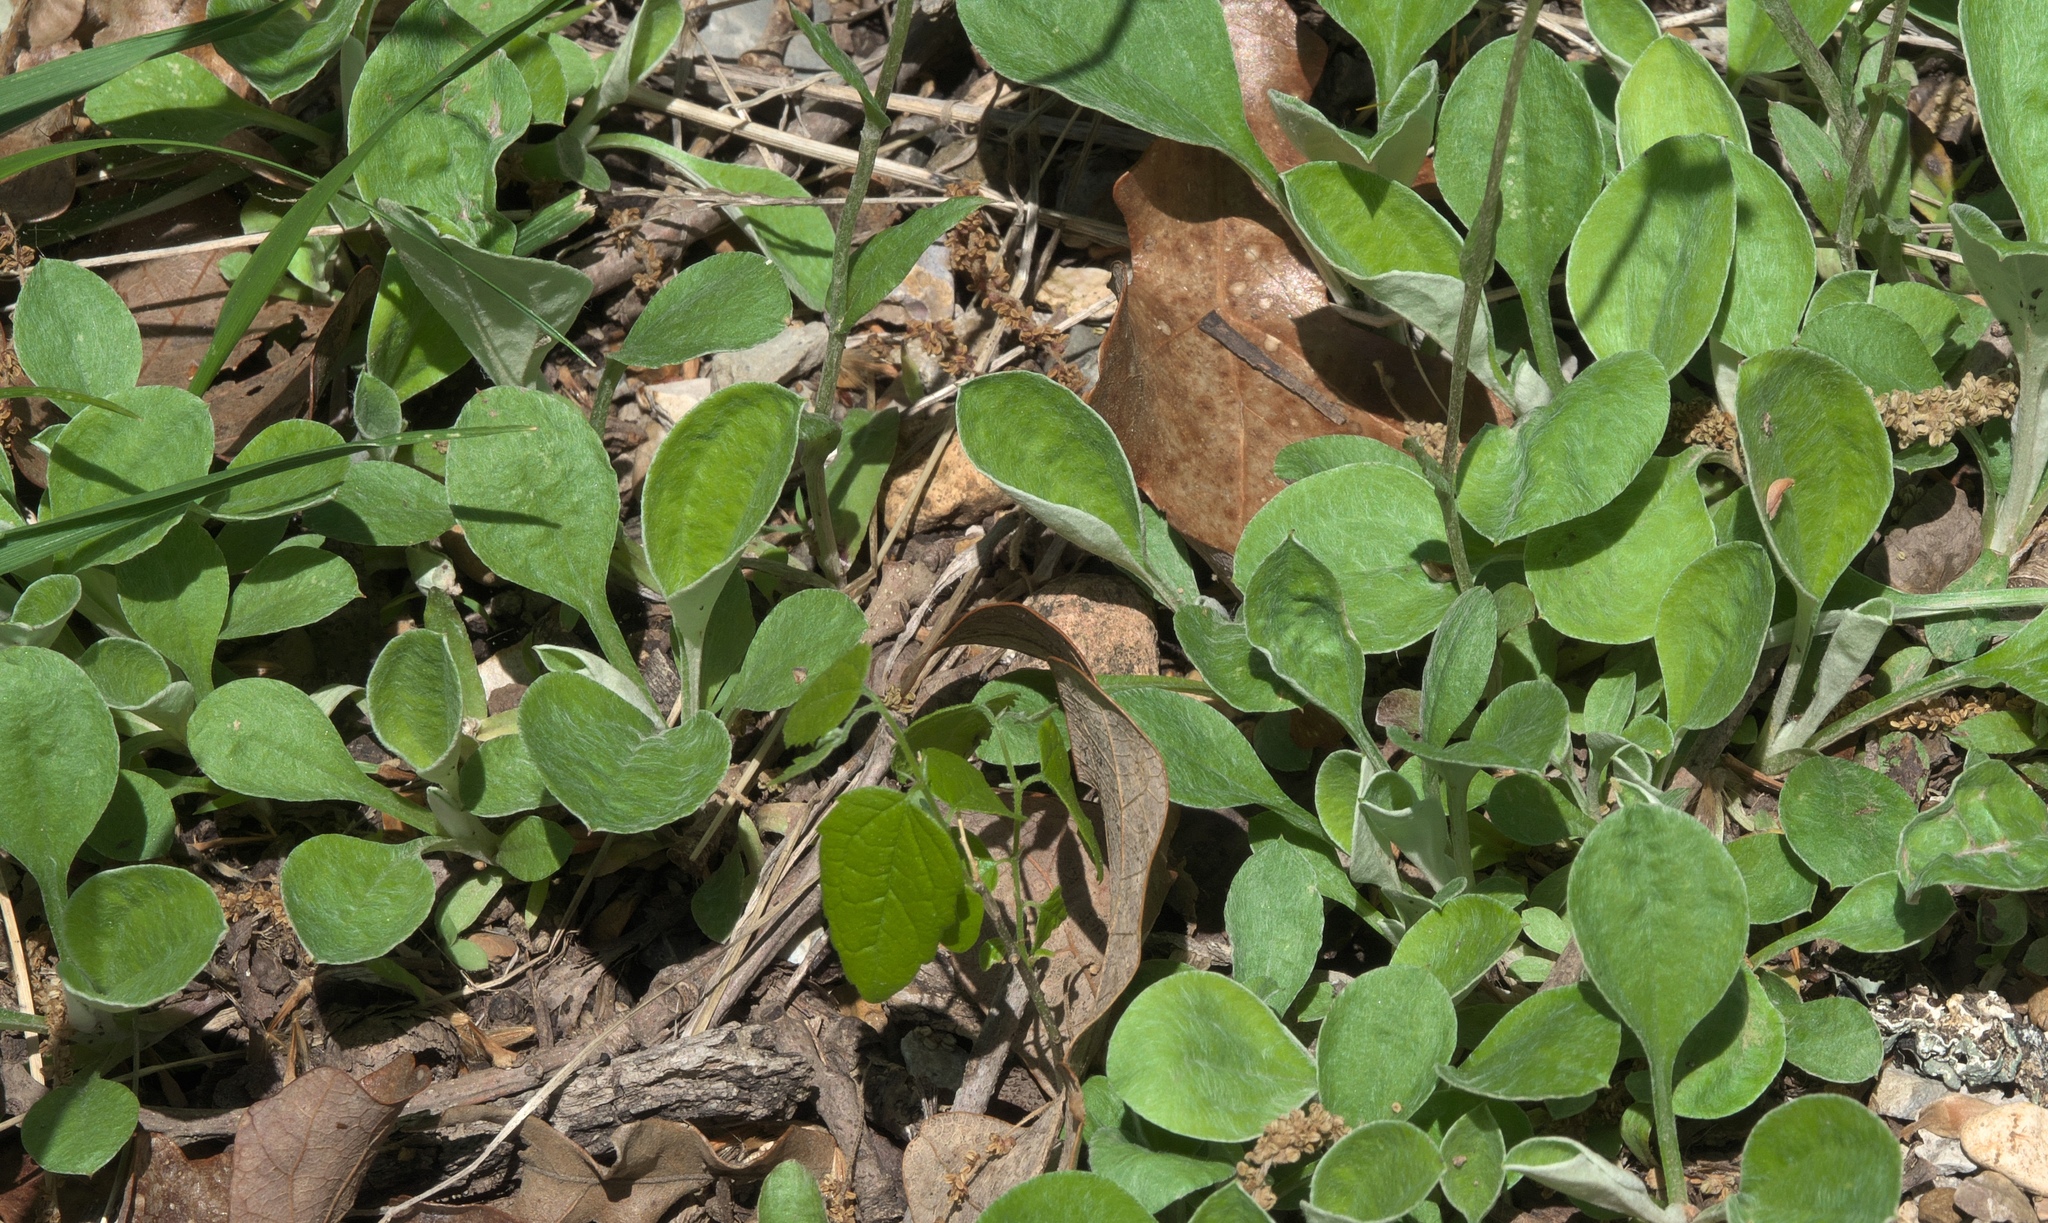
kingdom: Plantae
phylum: Tracheophyta
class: Magnoliopsida
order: Asterales
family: Asteraceae
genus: Antennaria
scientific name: Antennaria parlinii
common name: Parlin's pussytoes
